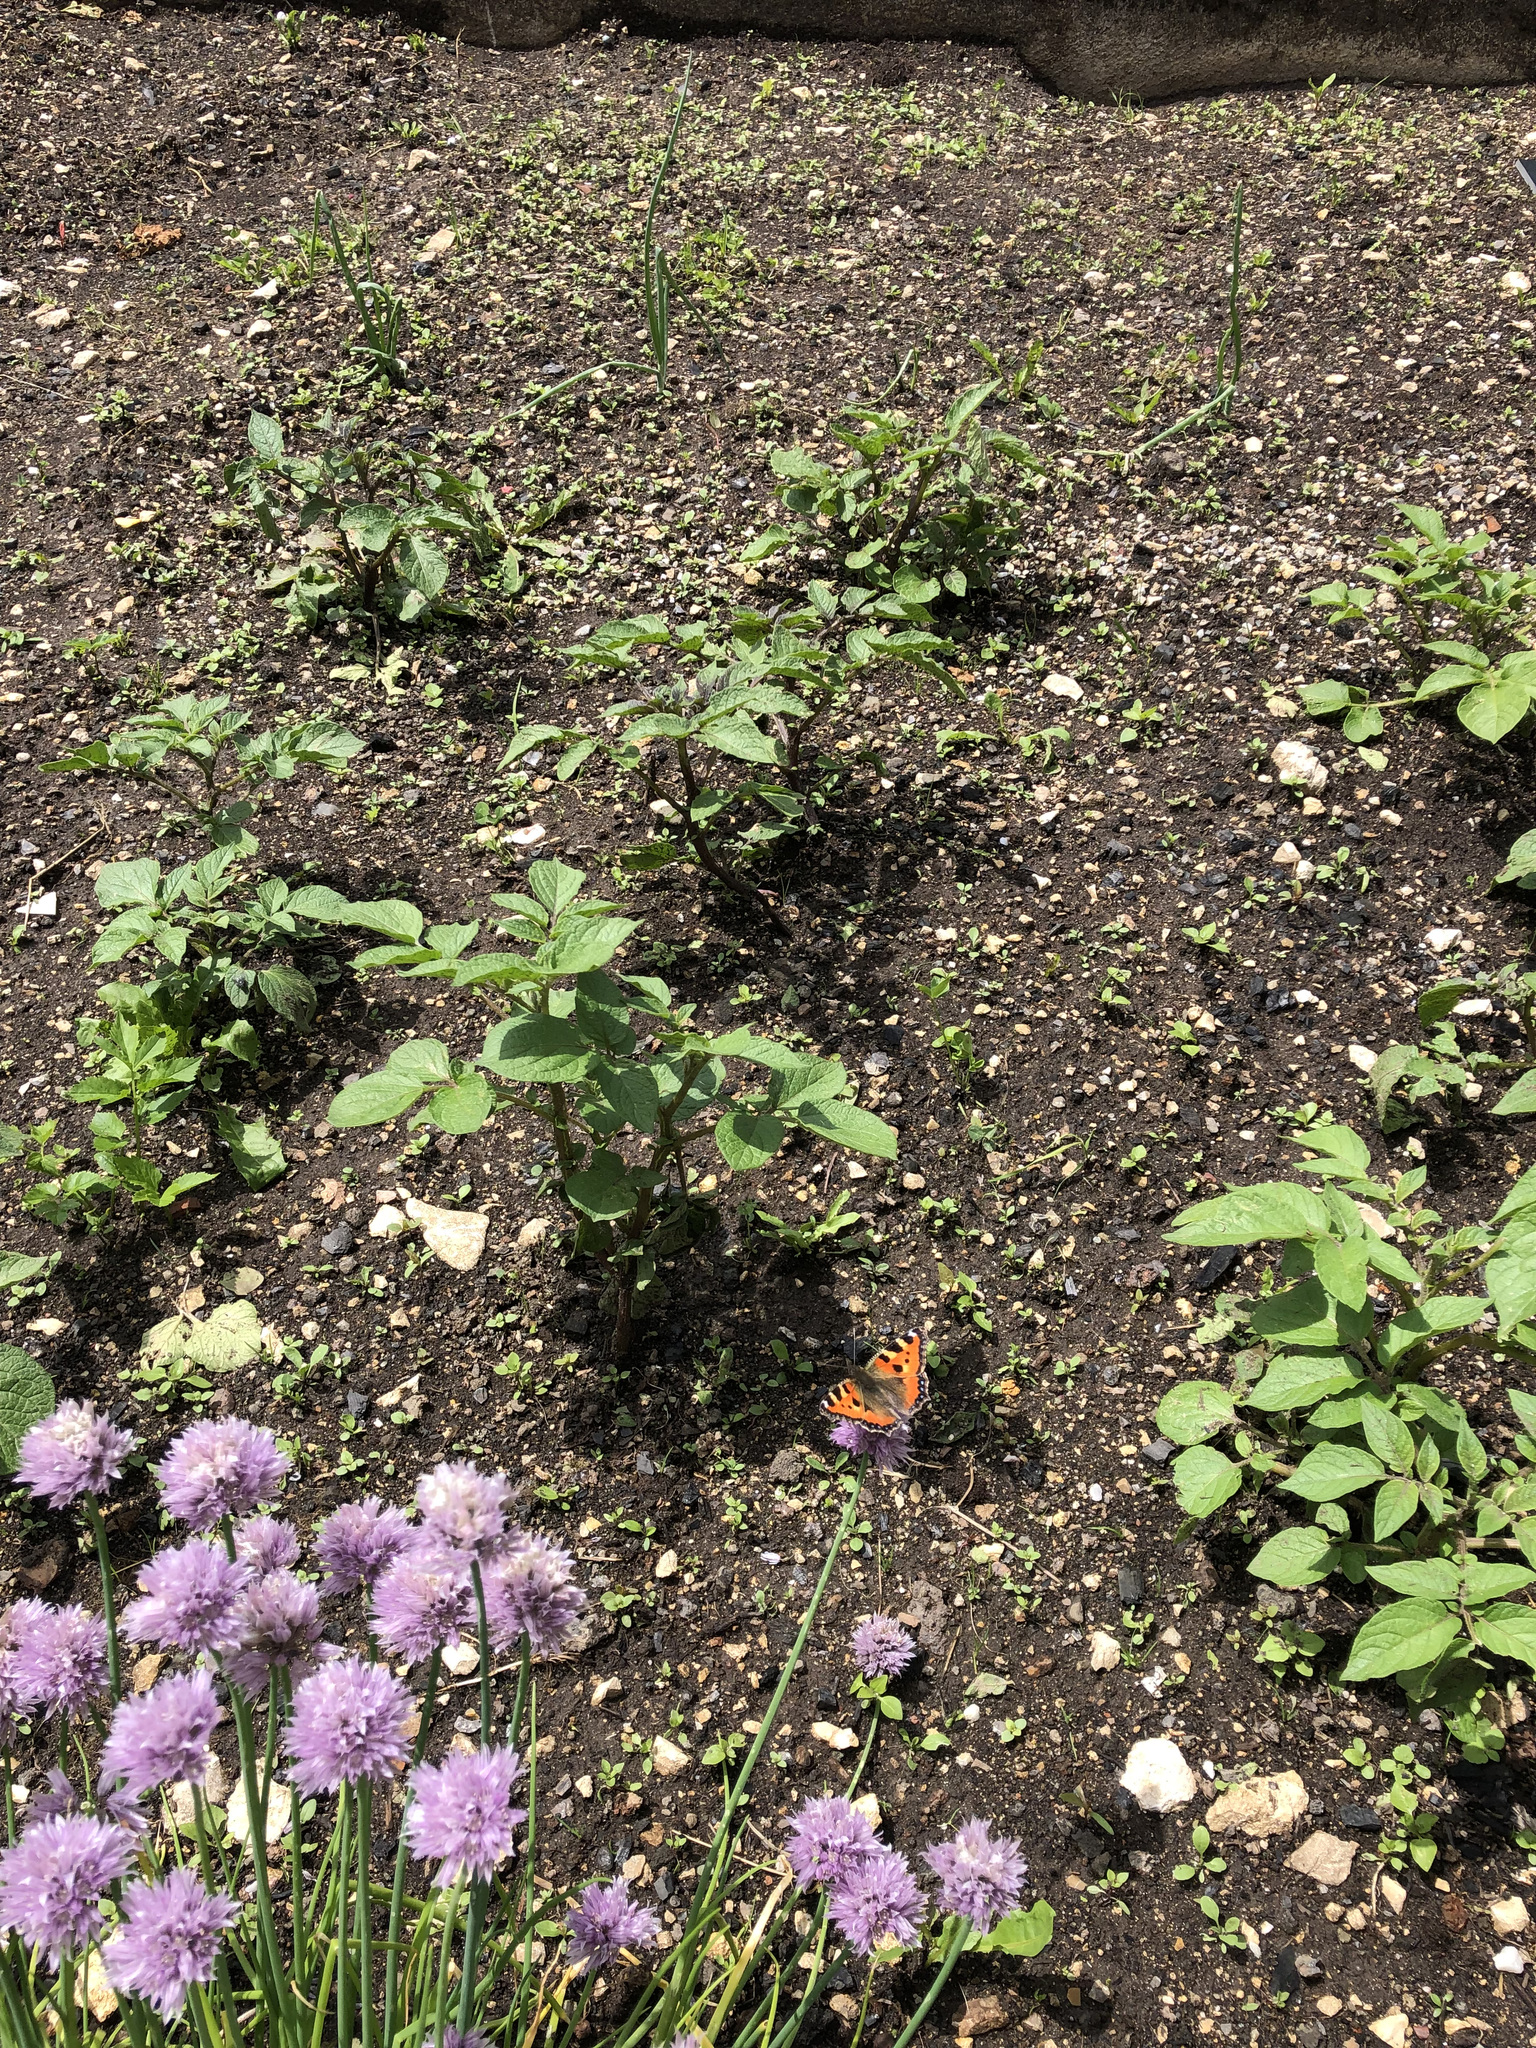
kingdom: Animalia
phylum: Arthropoda
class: Insecta
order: Lepidoptera
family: Nymphalidae
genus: Aglais
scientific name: Aglais urticae
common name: Small tortoiseshell
